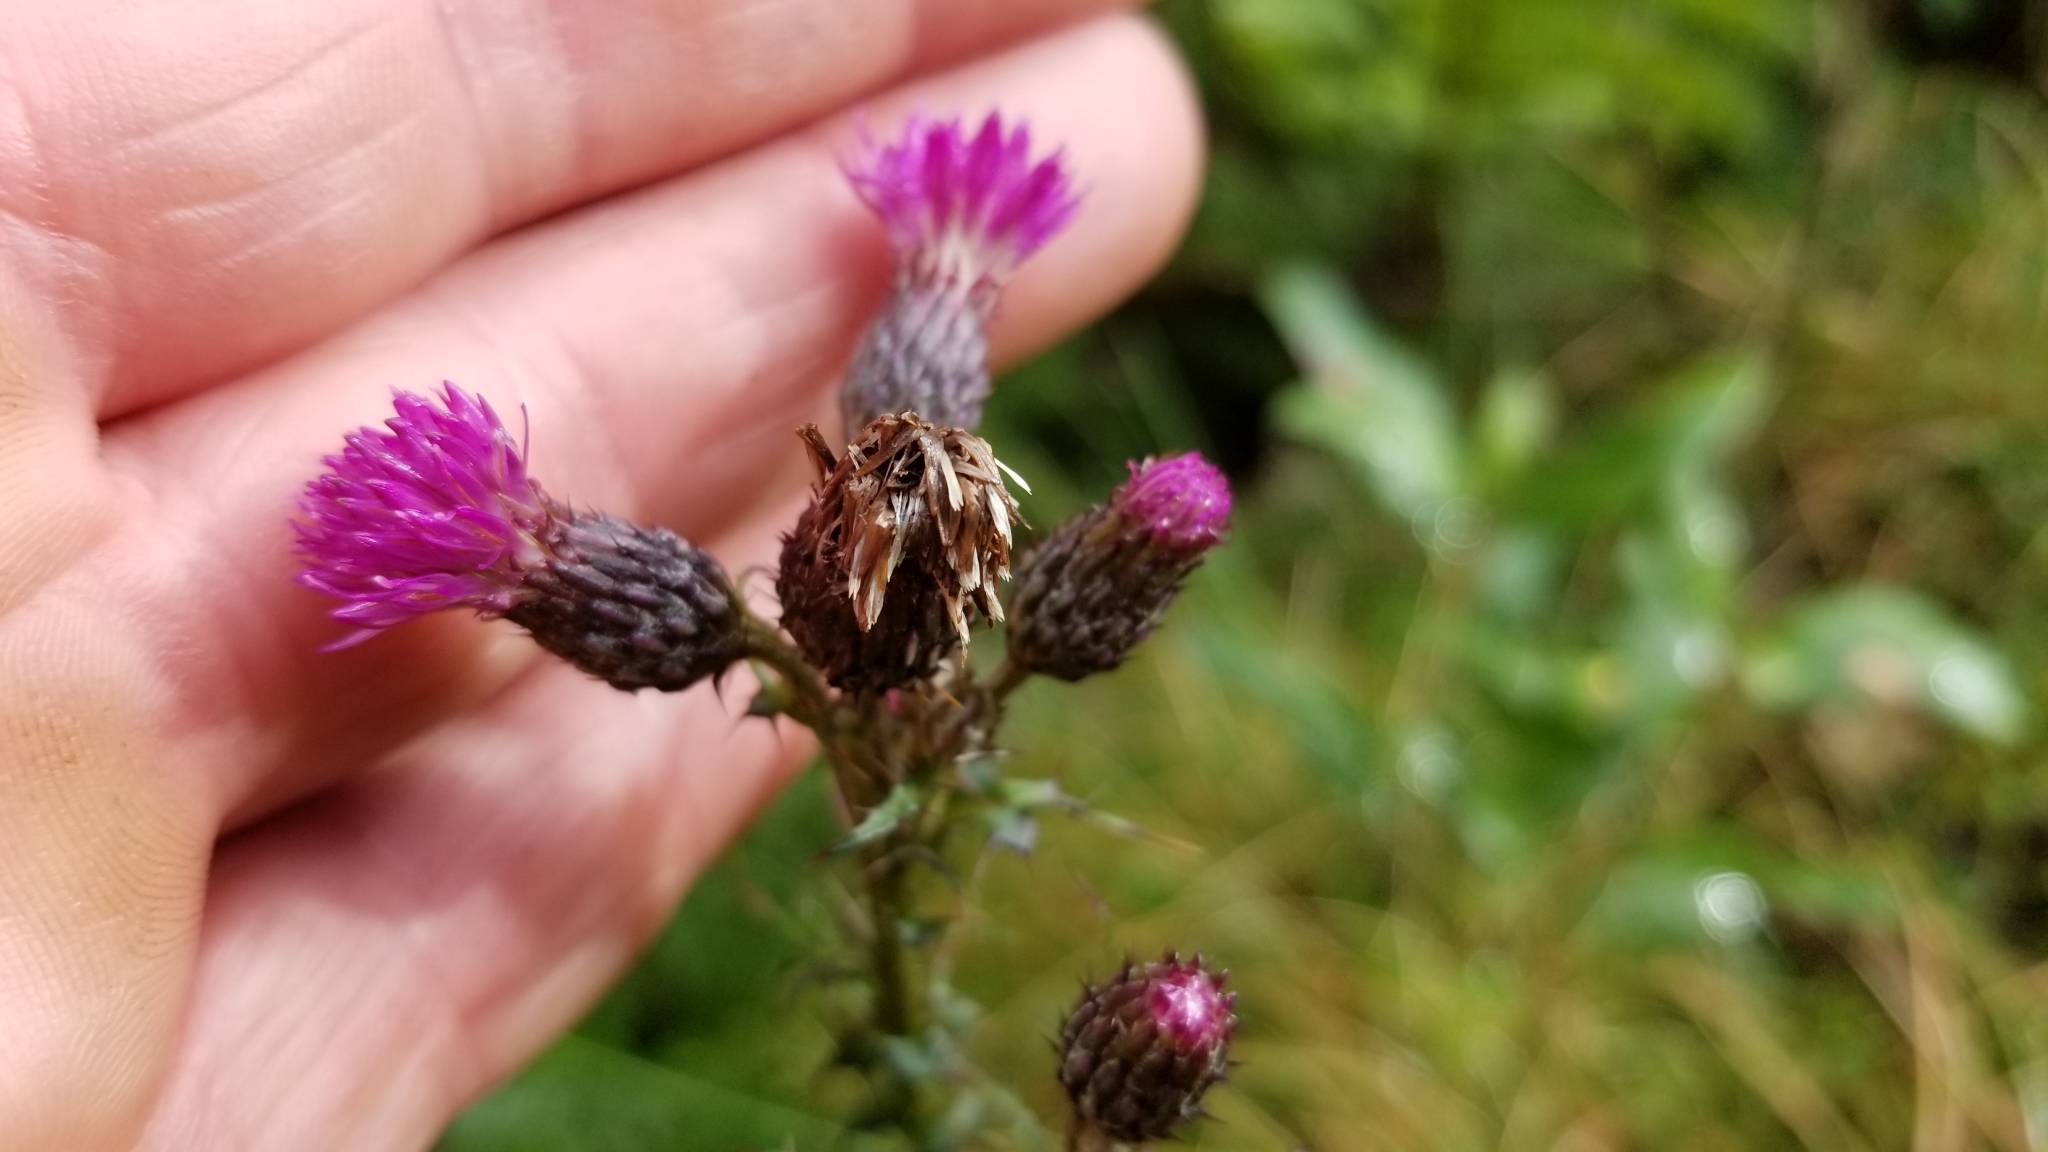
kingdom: Plantae
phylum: Tracheophyta
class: Magnoliopsida
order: Asterales
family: Asteraceae
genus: Cirsium
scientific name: Cirsium palustre
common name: Marsh thistle
